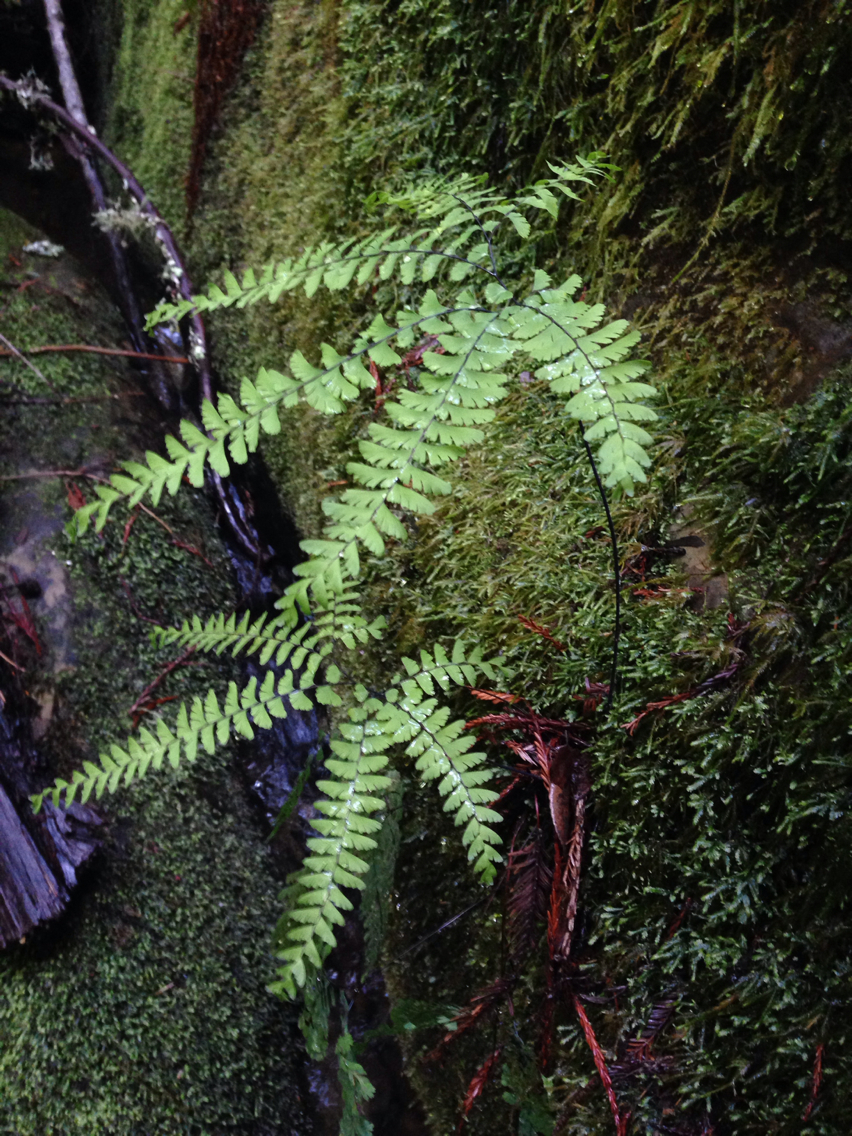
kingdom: Plantae
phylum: Tracheophyta
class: Polypodiopsida
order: Polypodiales
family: Pteridaceae
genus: Adiantum
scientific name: Adiantum aleuticum
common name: Aleutian maidenhair fern
